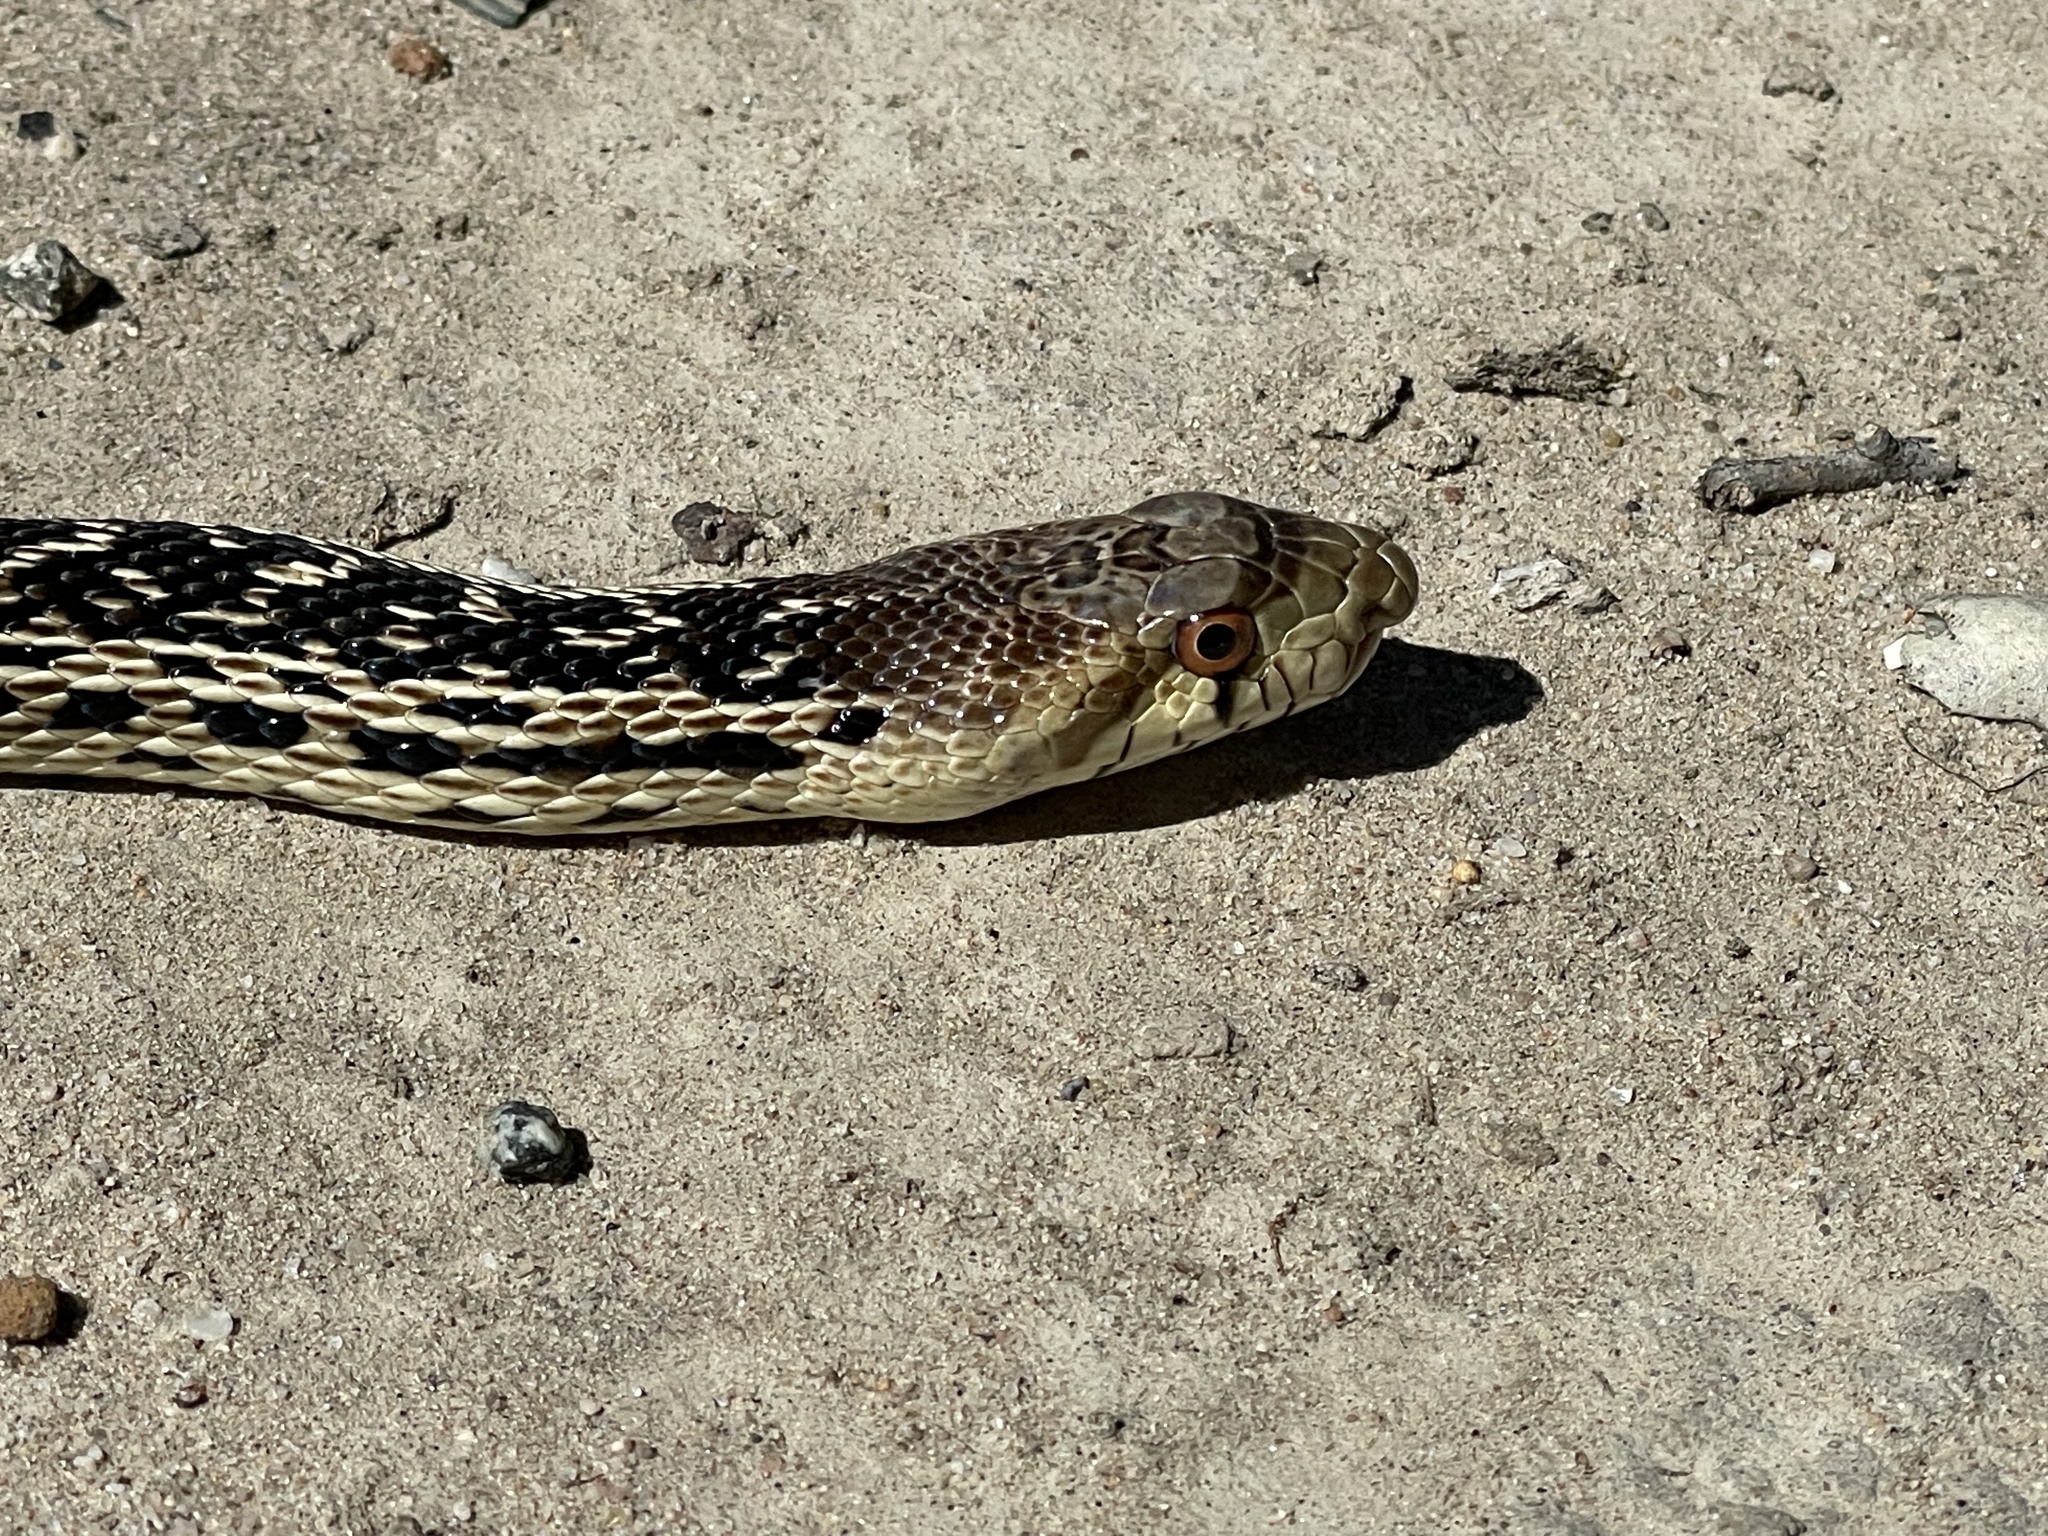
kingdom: Animalia
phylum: Chordata
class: Squamata
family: Colubridae
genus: Pituophis
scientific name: Pituophis catenifer
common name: Gopher snake
